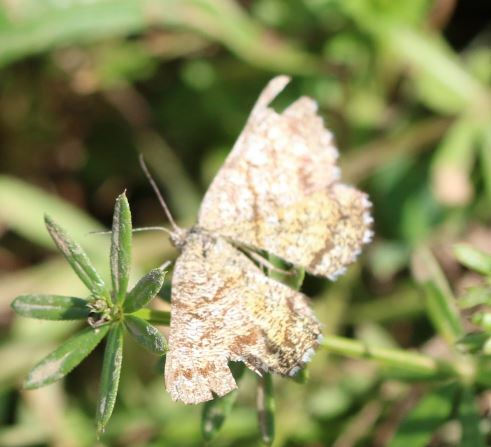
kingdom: Animalia
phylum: Arthropoda
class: Insecta
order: Lepidoptera
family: Geometridae
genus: Ematurga
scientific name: Ematurga atomaria
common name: Common heath
